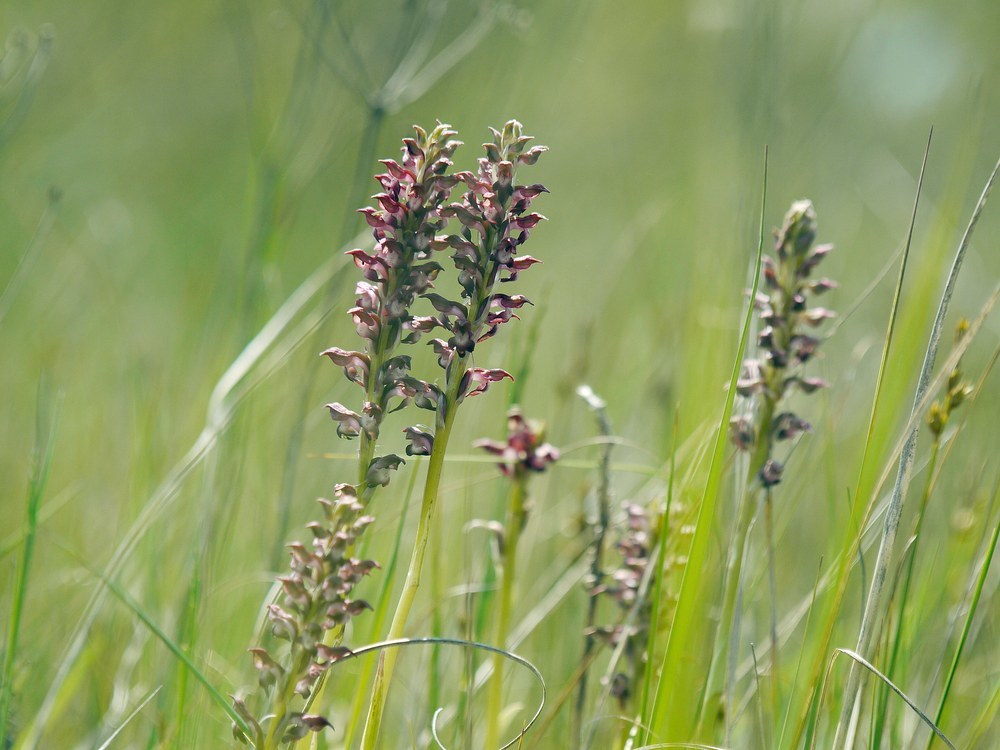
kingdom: Plantae
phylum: Tracheophyta
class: Liliopsida
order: Asparagales
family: Orchidaceae
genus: Anacamptis
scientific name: Anacamptis coriophora
